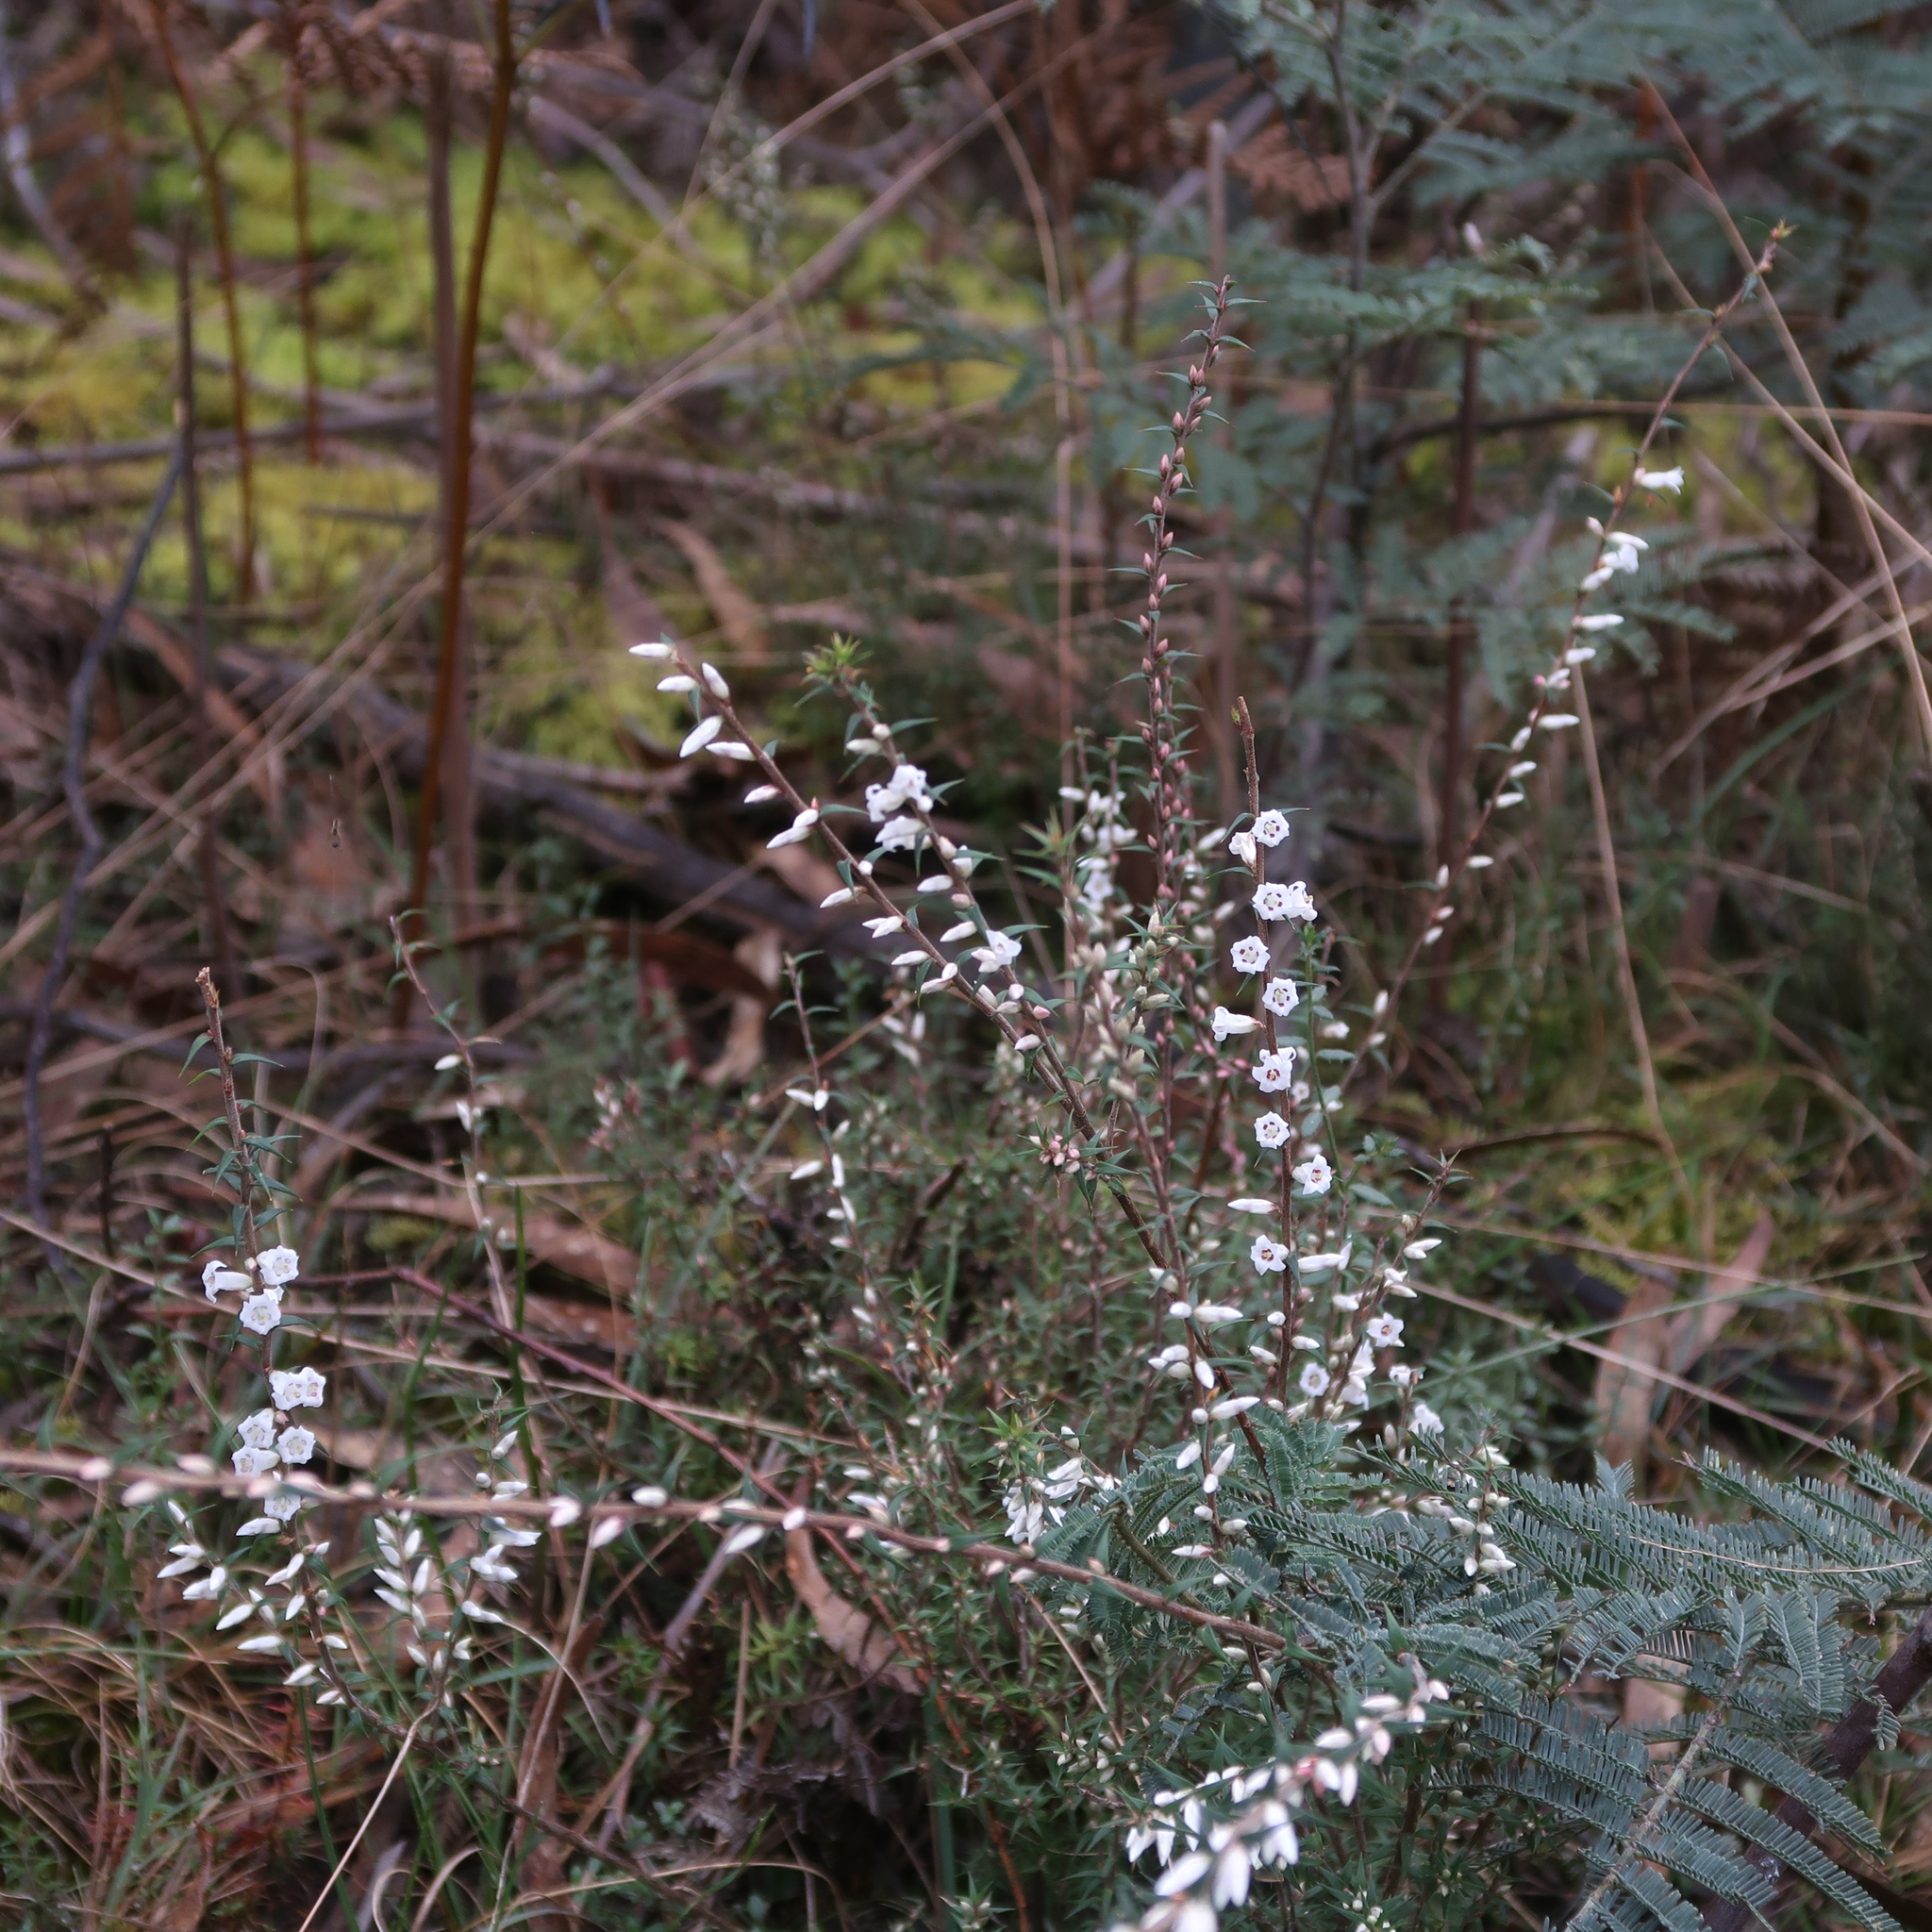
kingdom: Plantae
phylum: Tracheophyta
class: Magnoliopsida
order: Ericales
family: Ericaceae
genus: Epacris
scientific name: Epacris impressa
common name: Common-heath
